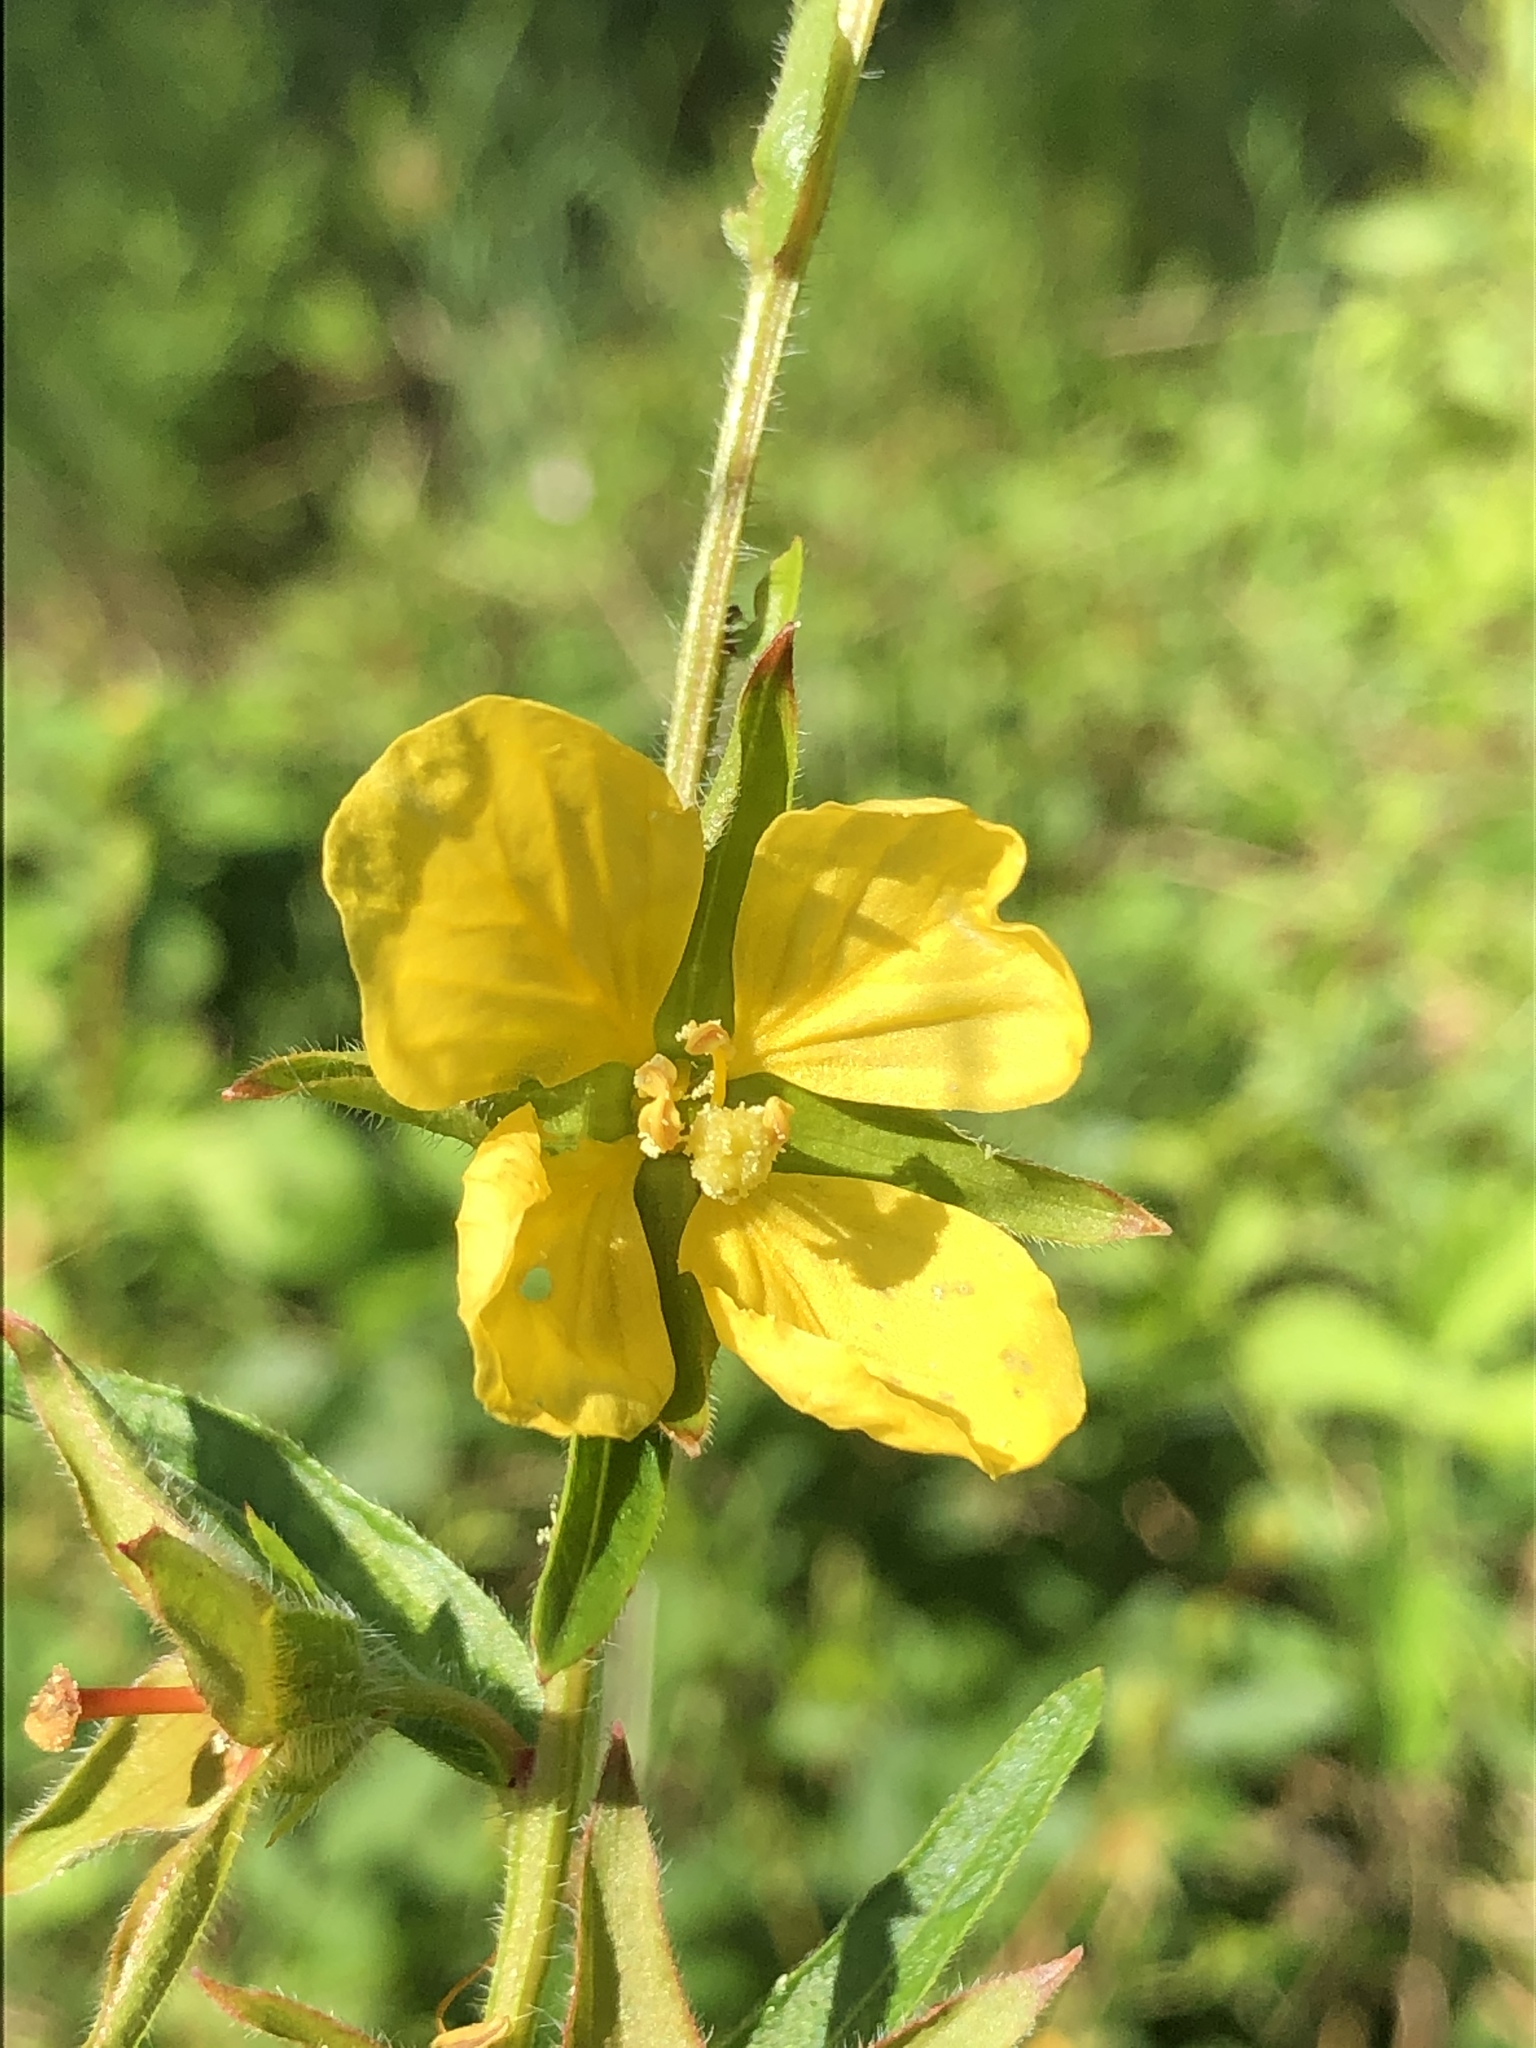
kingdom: Plantae
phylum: Tracheophyta
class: Magnoliopsida
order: Myrtales
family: Onagraceae
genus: Ludwigia
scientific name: Ludwigia hirtella
